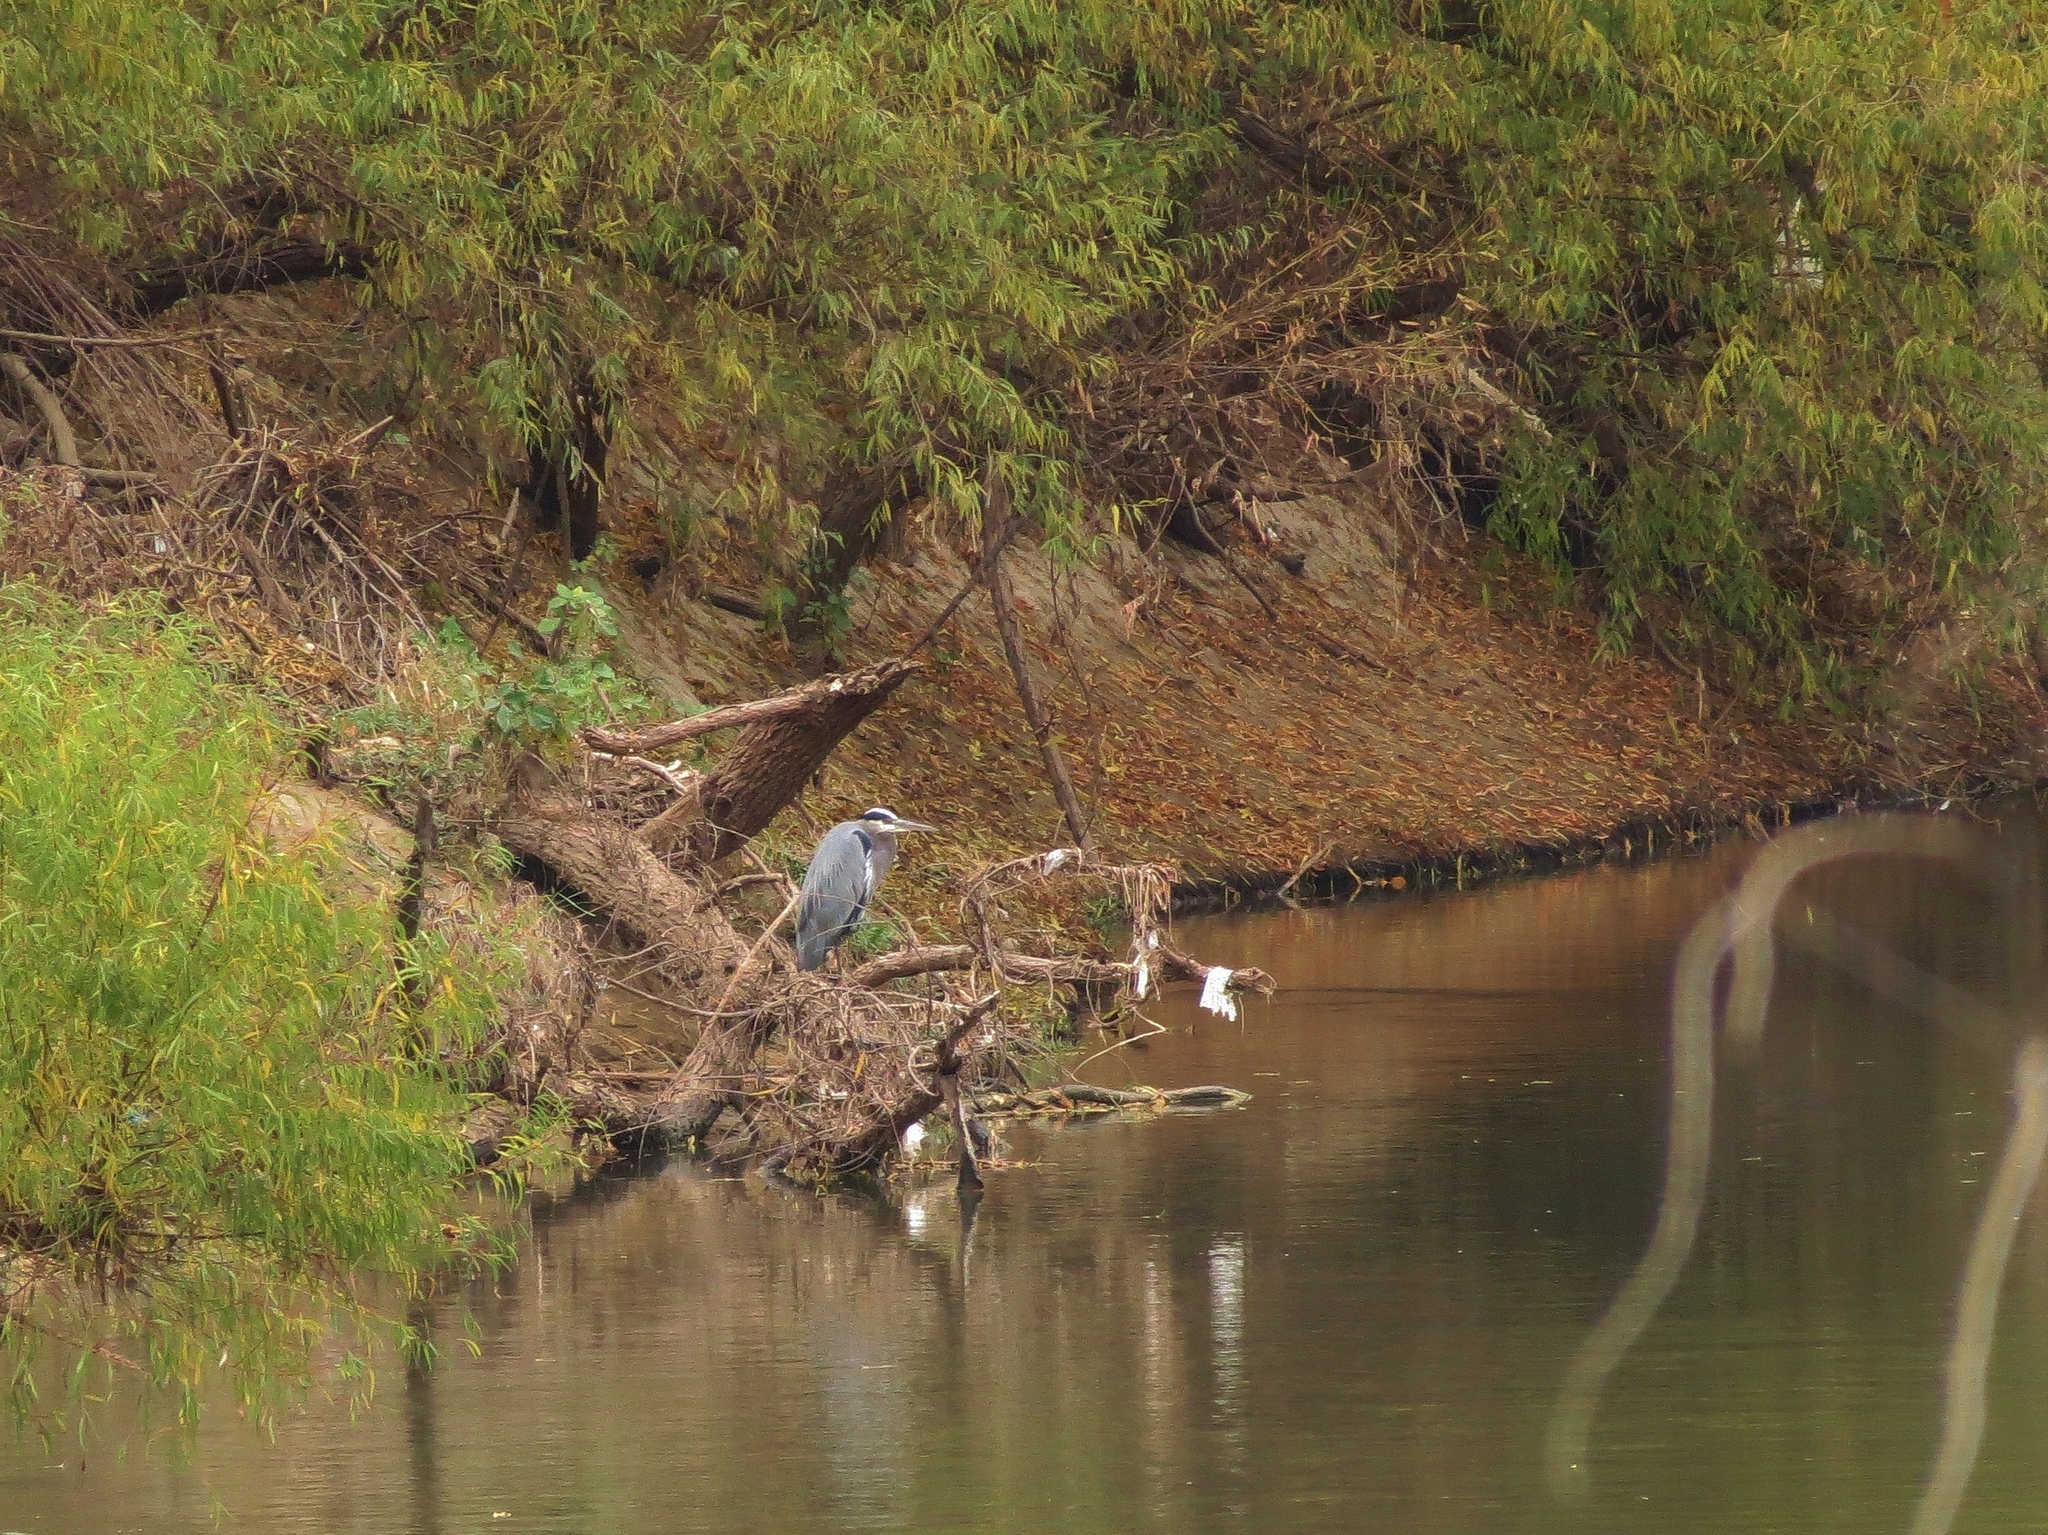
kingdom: Animalia
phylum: Chordata
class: Aves
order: Pelecaniformes
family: Ardeidae
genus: Ardea
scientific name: Ardea herodias
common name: Great blue heron
